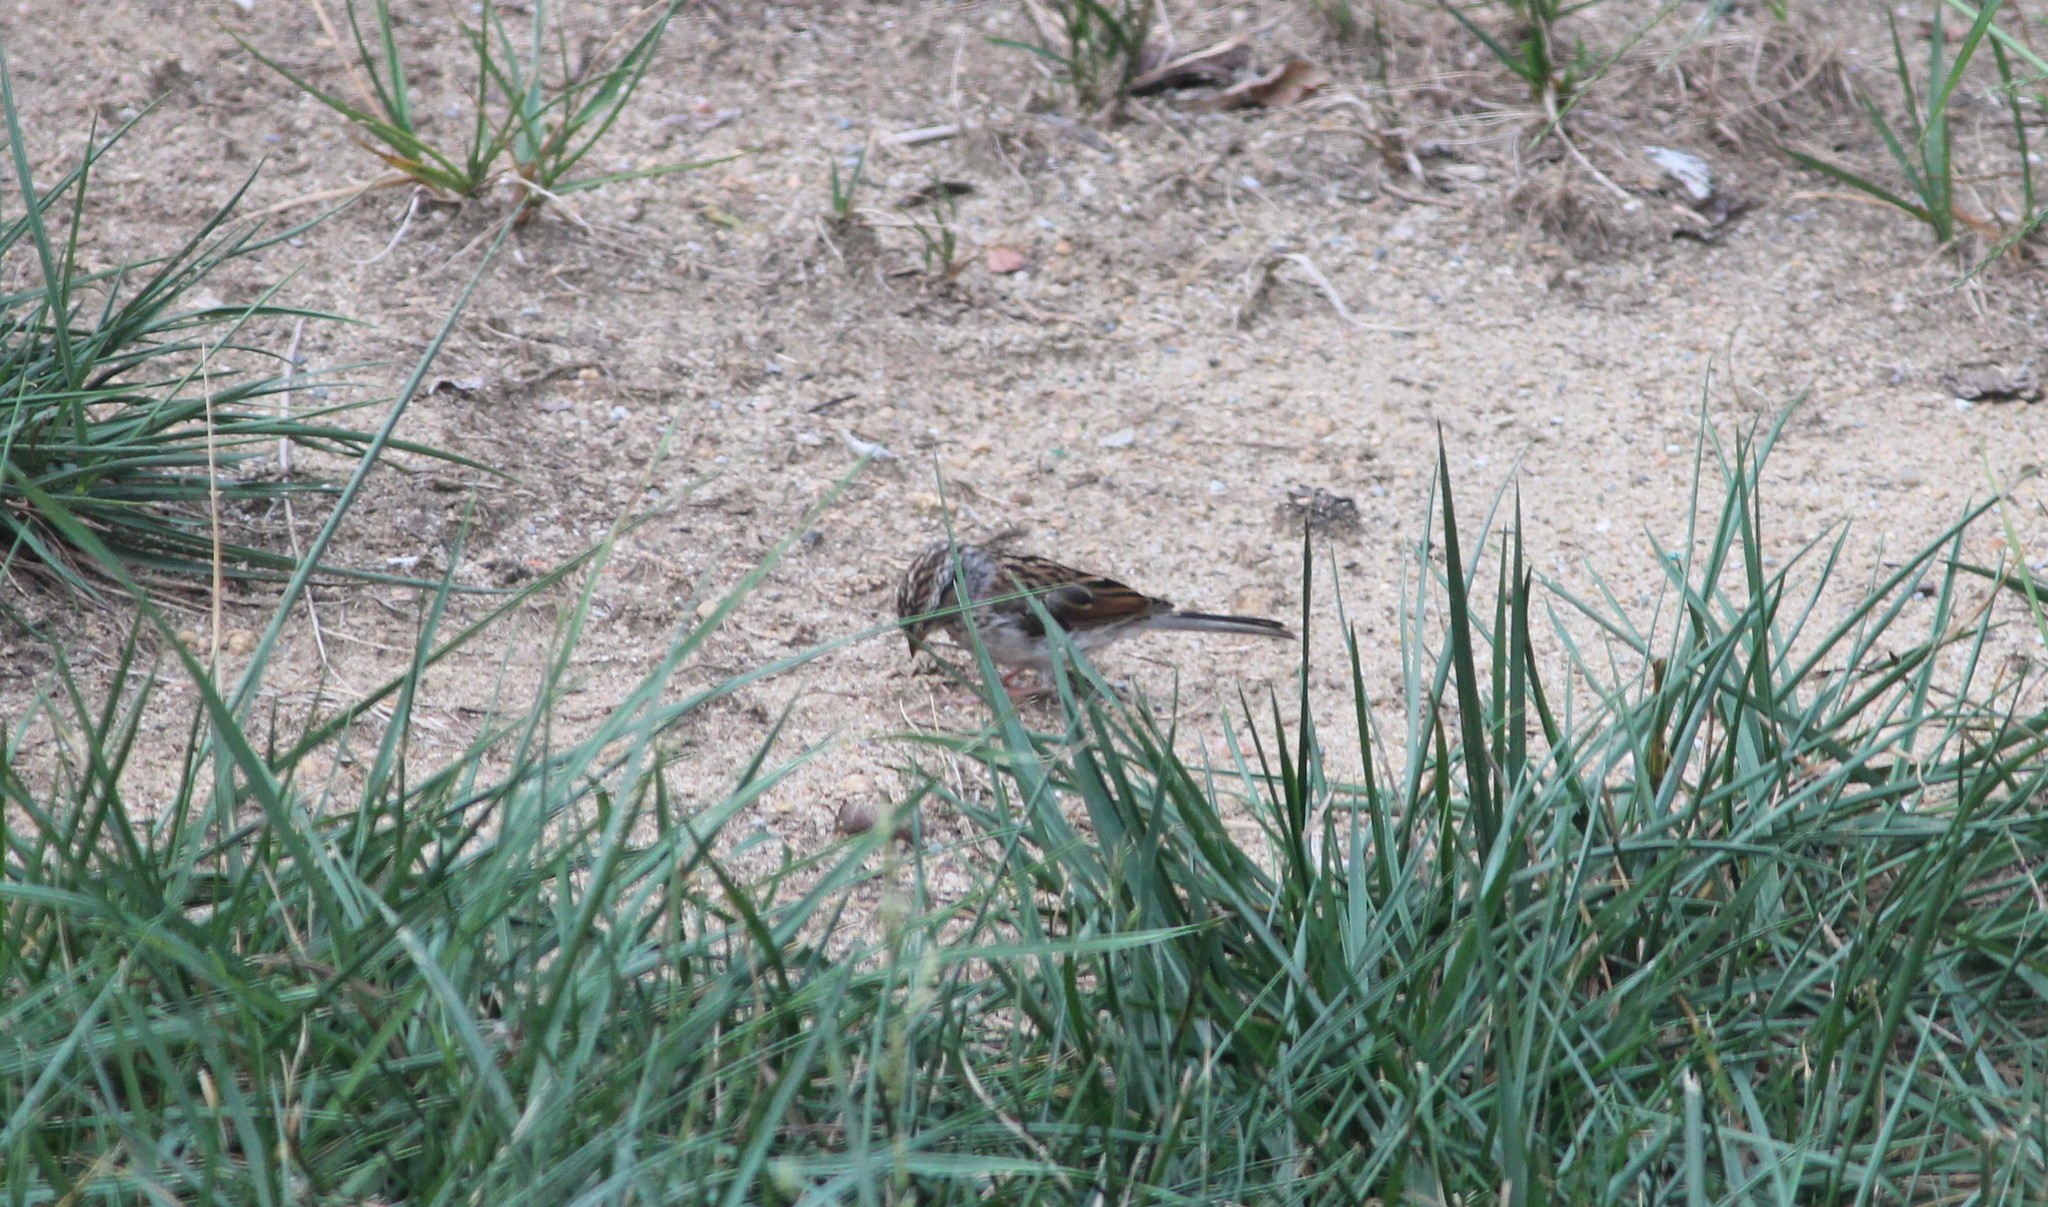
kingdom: Animalia
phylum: Chordata
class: Aves
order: Passeriformes
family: Passerellidae
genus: Spizella
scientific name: Spizella passerina
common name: Chipping sparrow
